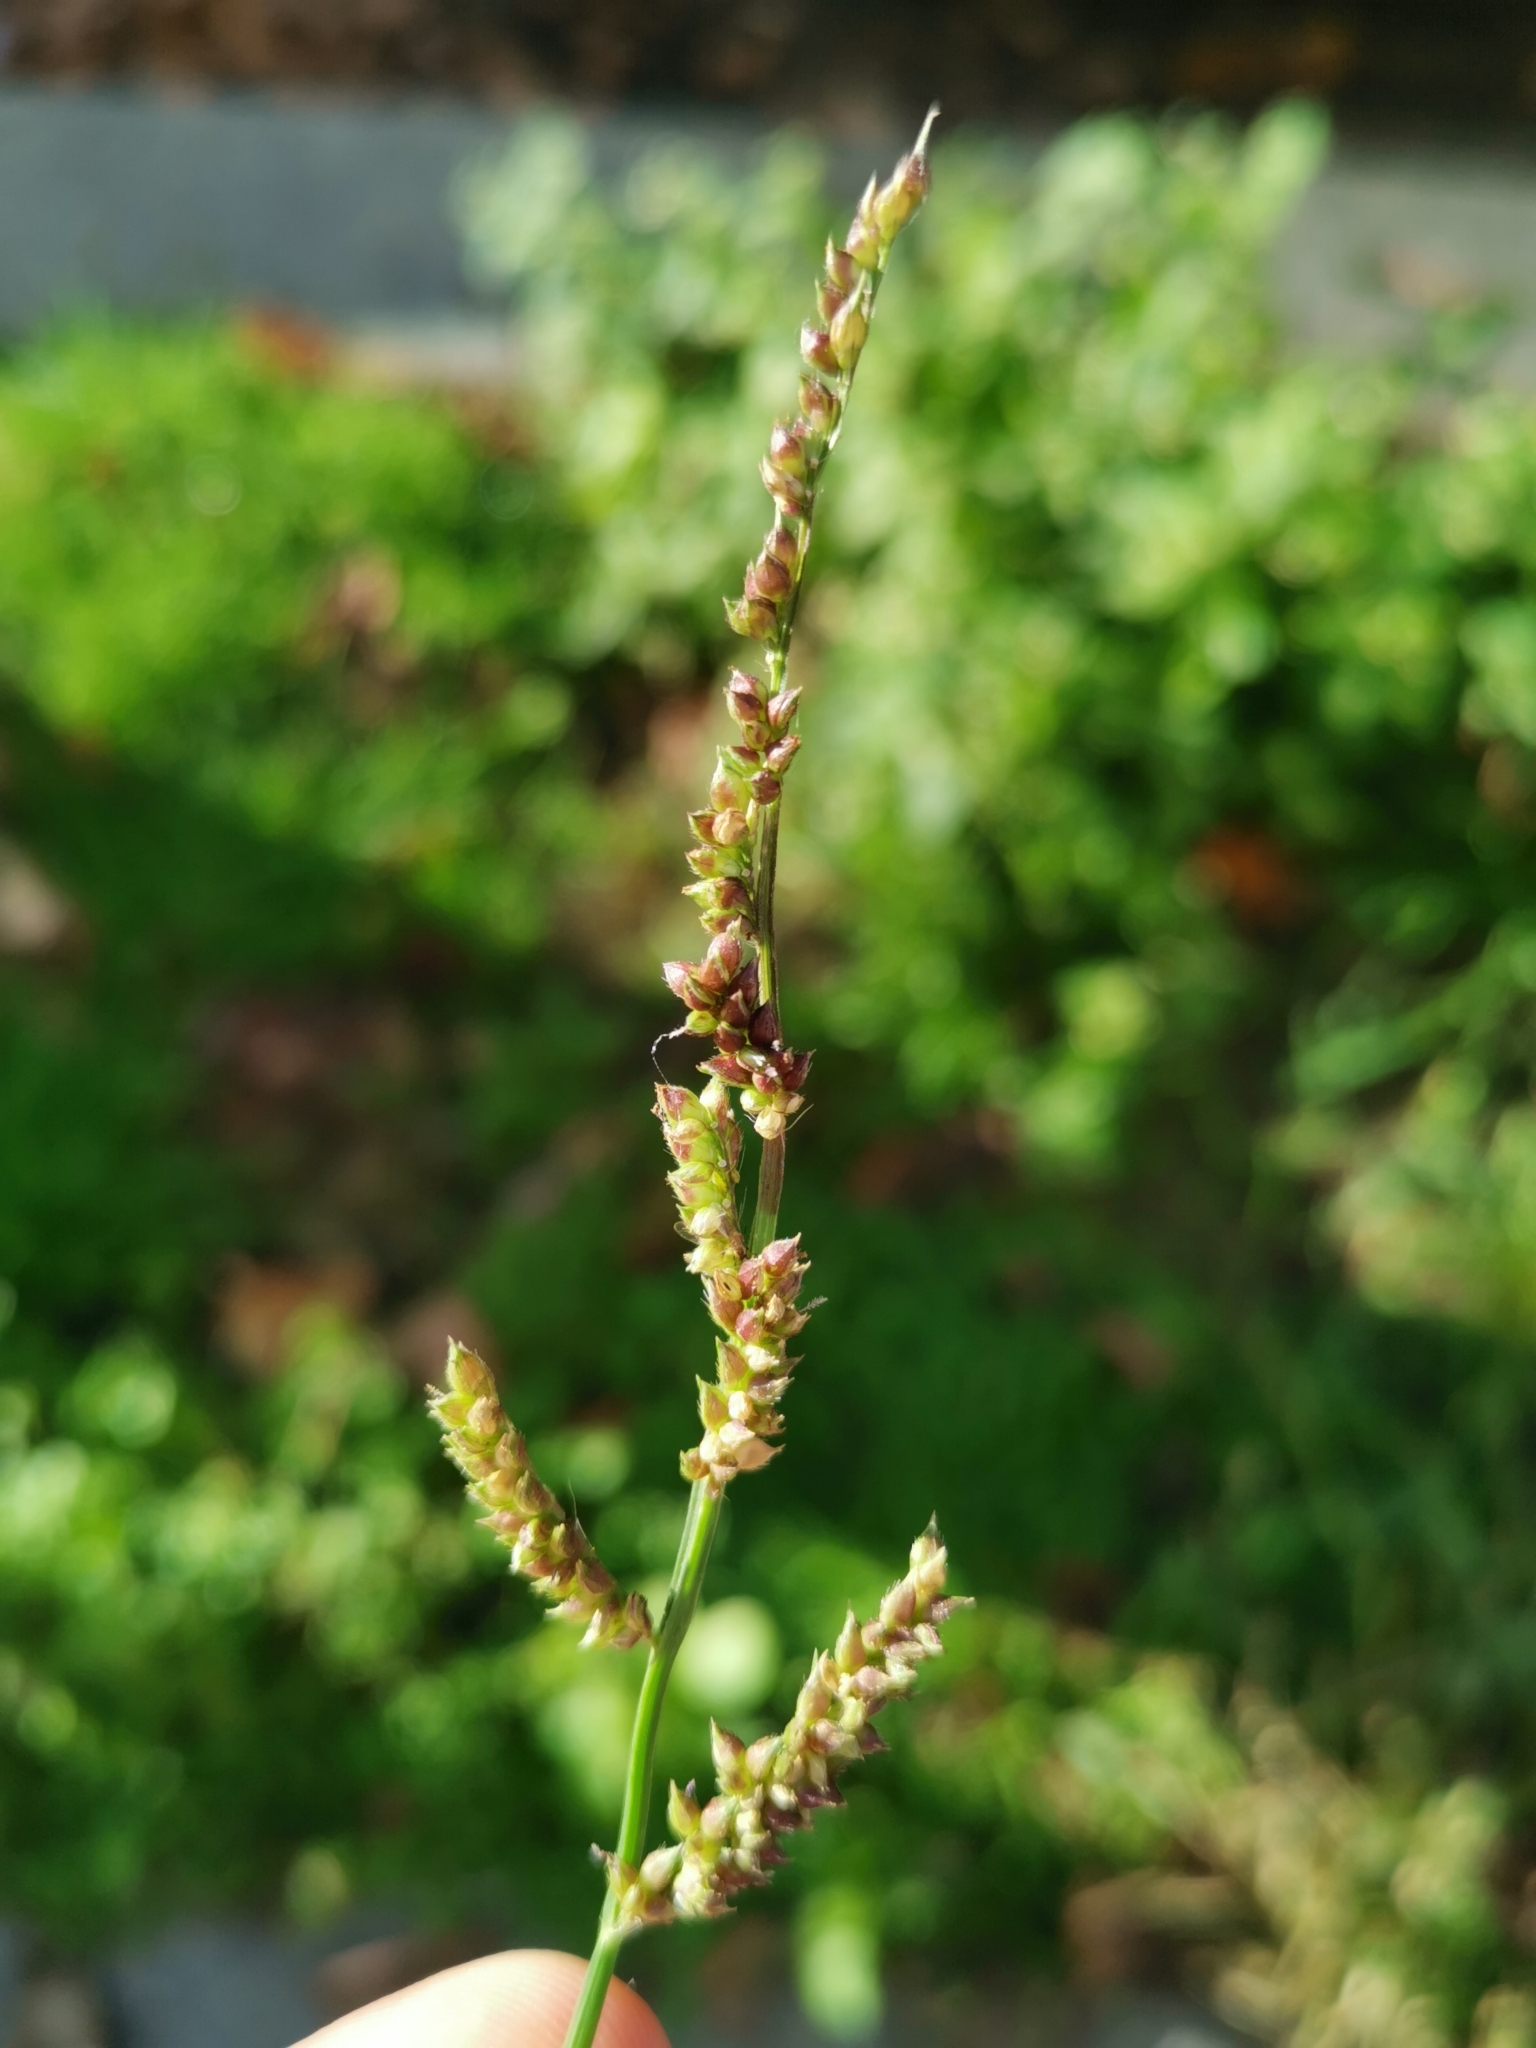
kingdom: Plantae
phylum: Tracheophyta
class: Liliopsida
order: Poales
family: Poaceae
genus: Echinochloa
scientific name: Echinochloa crus-galli
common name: Cockspur
